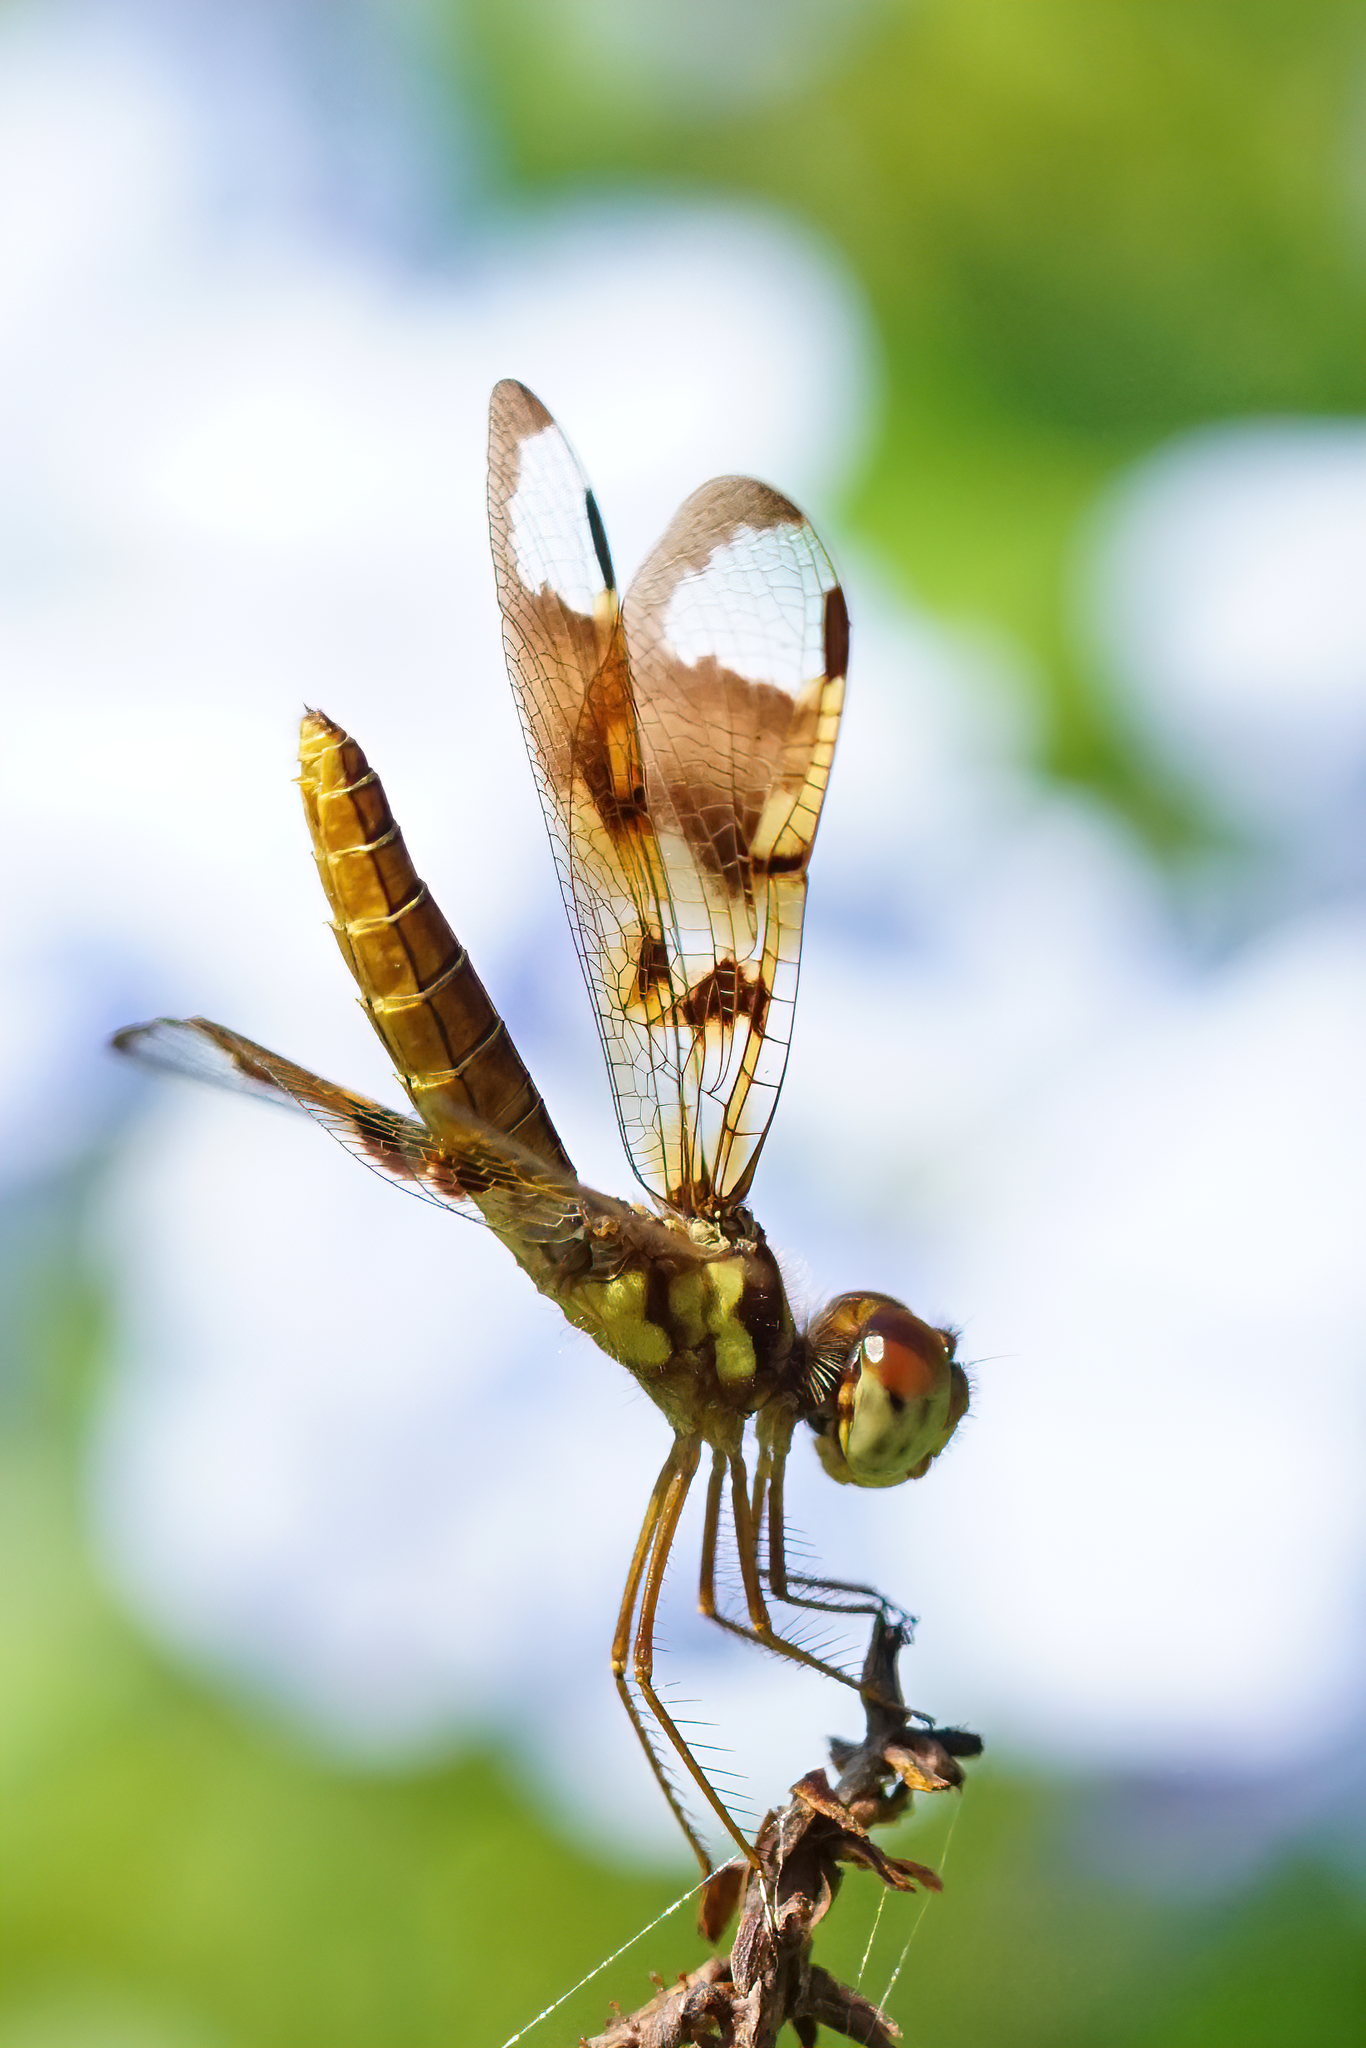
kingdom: Animalia
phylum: Arthropoda
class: Insecta
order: Odonata
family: Libellulidae
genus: Perithemis
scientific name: Perithemis tenera
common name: Eastern amberwing
